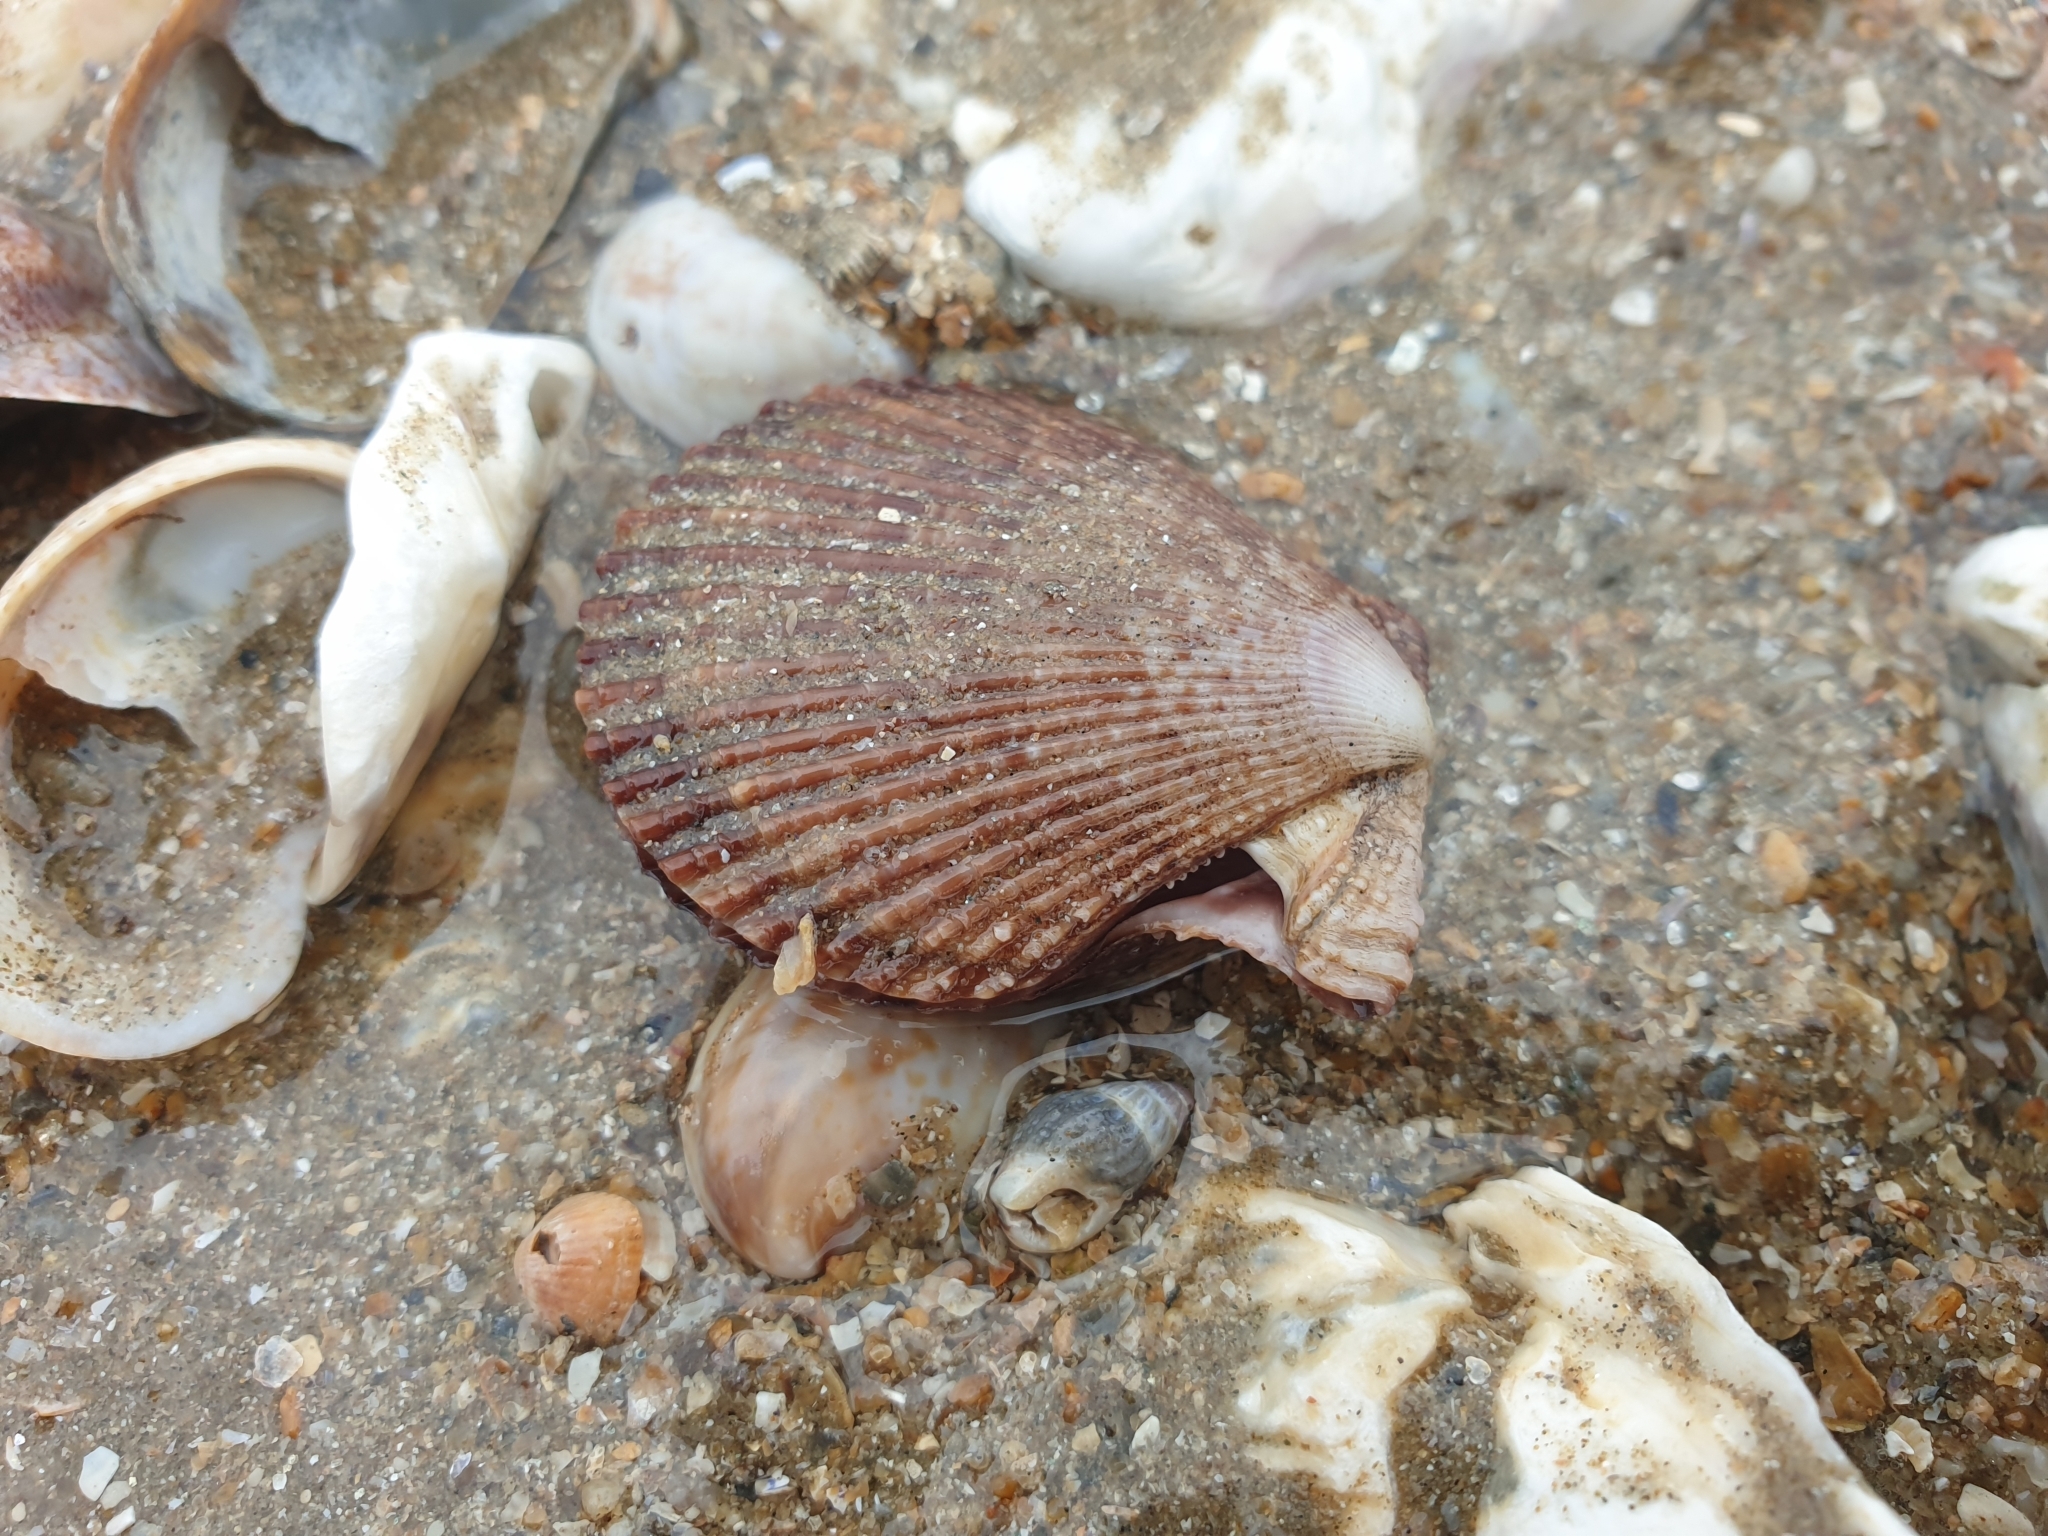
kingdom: Animalia
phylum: Mollusca
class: Bivalvia
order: Pectinida
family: Pectinidae
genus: Mimachlamys
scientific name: Mimachlamys varia
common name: Variegated scallop
